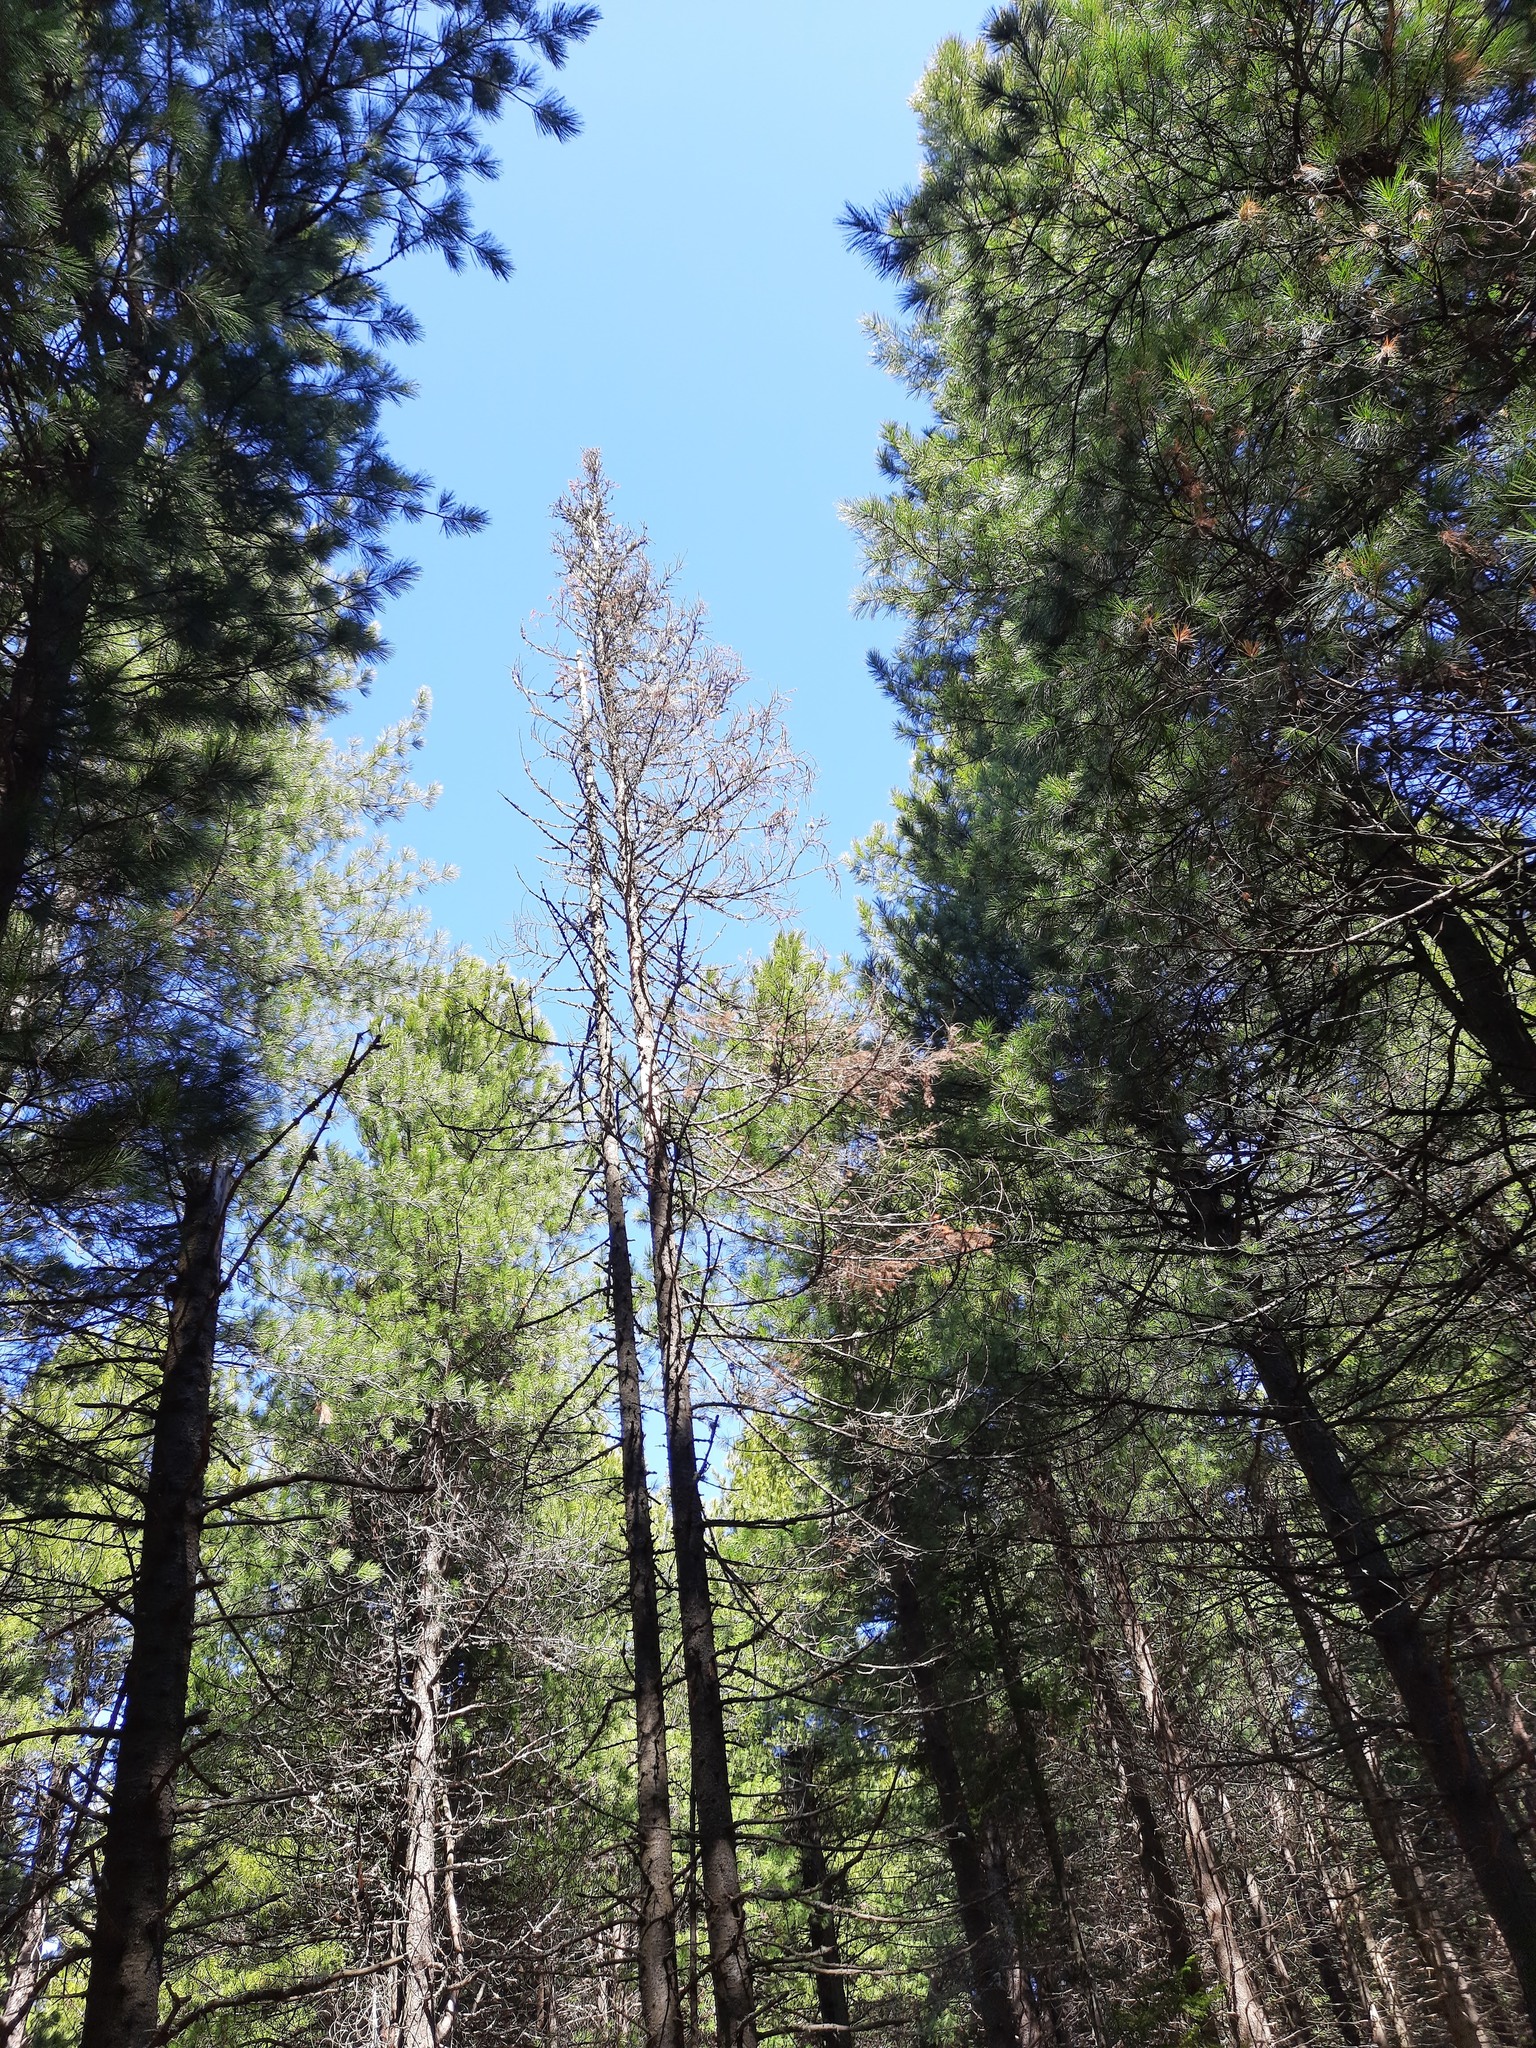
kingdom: Plantae
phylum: Tracheophyta
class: Pinopsida
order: Pinales
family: Pinaceae
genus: Pinus
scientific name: Pinus sibirica
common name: Siberian pine
